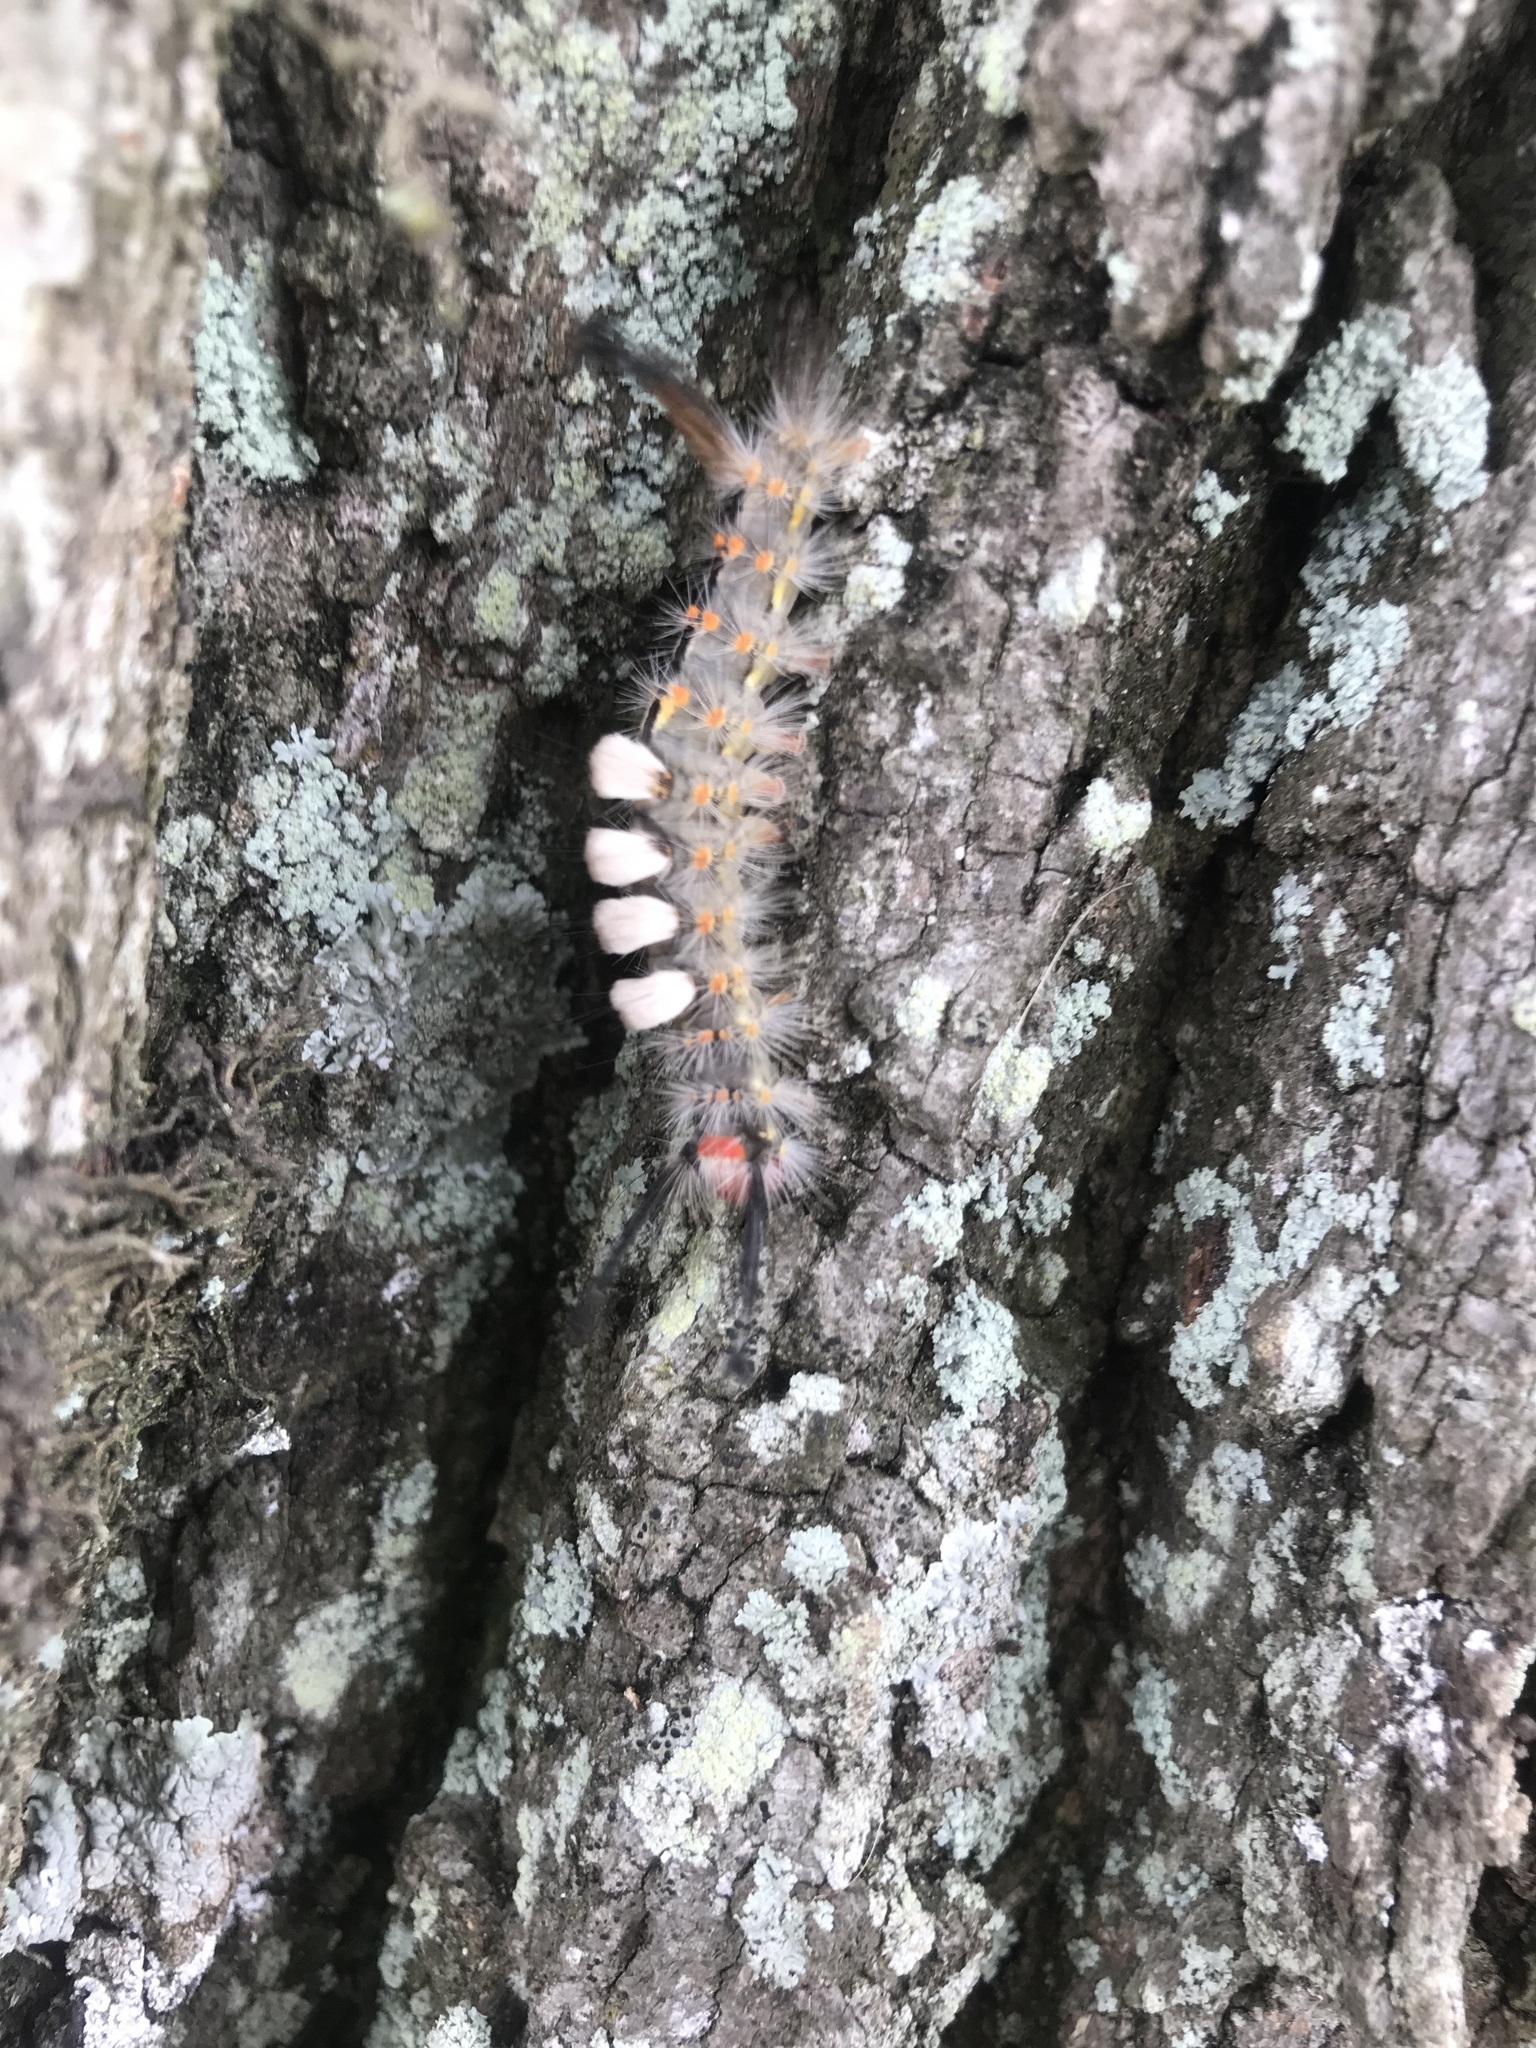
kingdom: Animalia
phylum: Arthropoda
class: Insecta
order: Lepidoptera
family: Erebidae
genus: Orgyia
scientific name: Orgyia detrita
